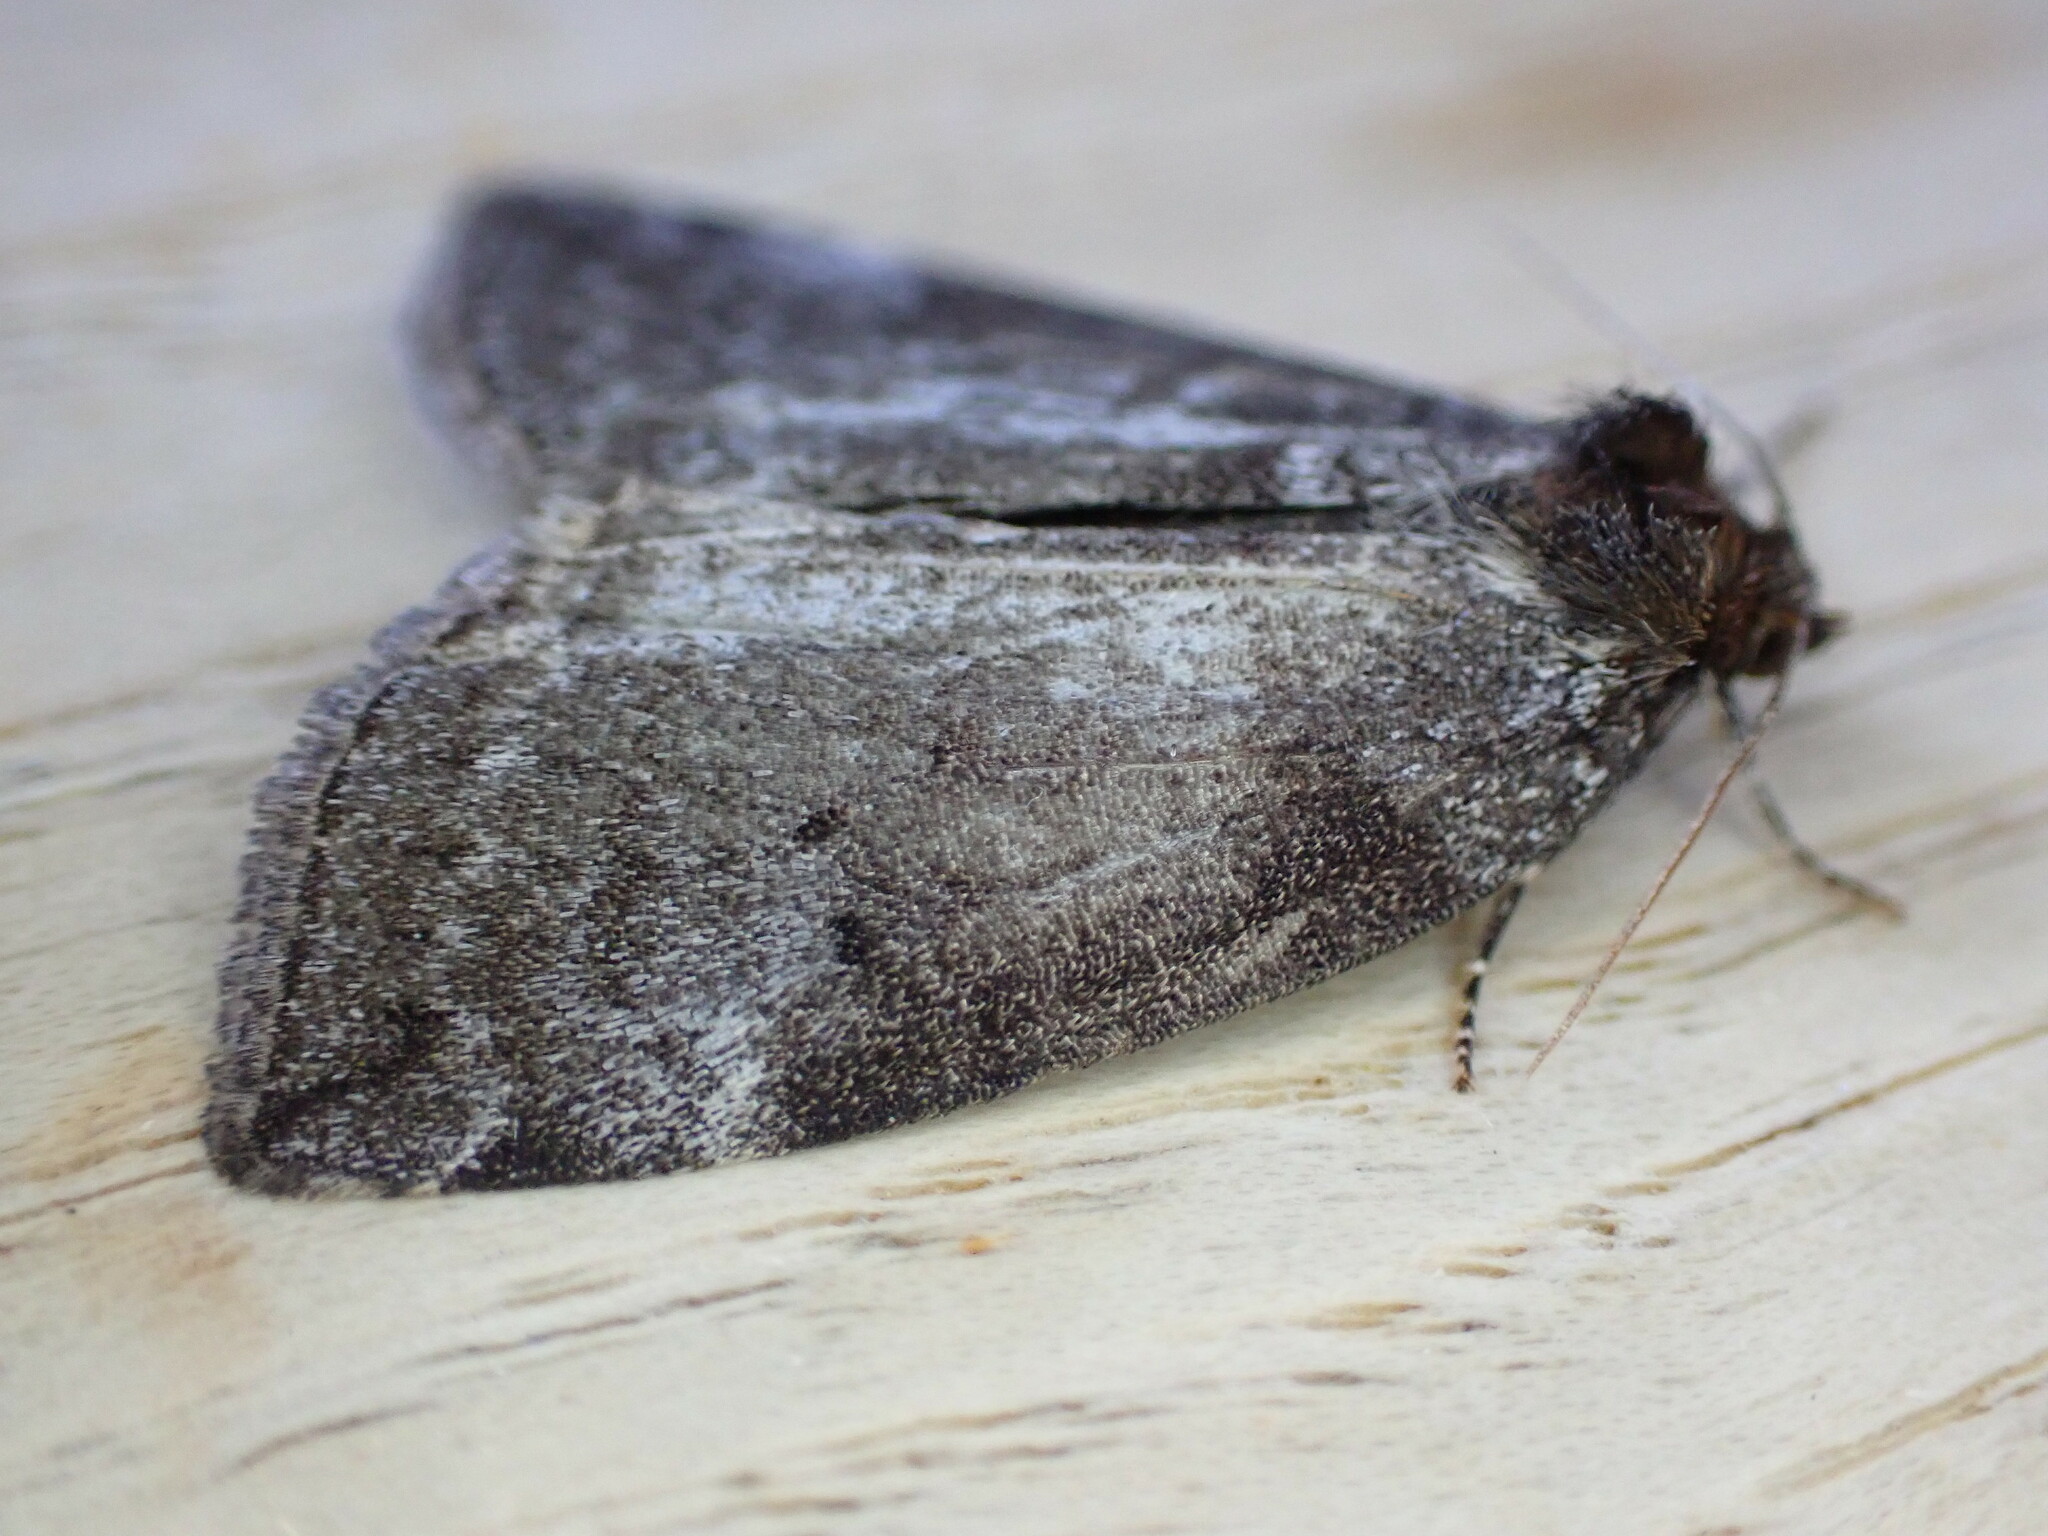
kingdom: Animalia
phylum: Arthropoda
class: Insecta
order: Lepidoptera
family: Drepanidae
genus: Ochropacha
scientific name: Ochropacha duplaris
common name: Common lutestring
